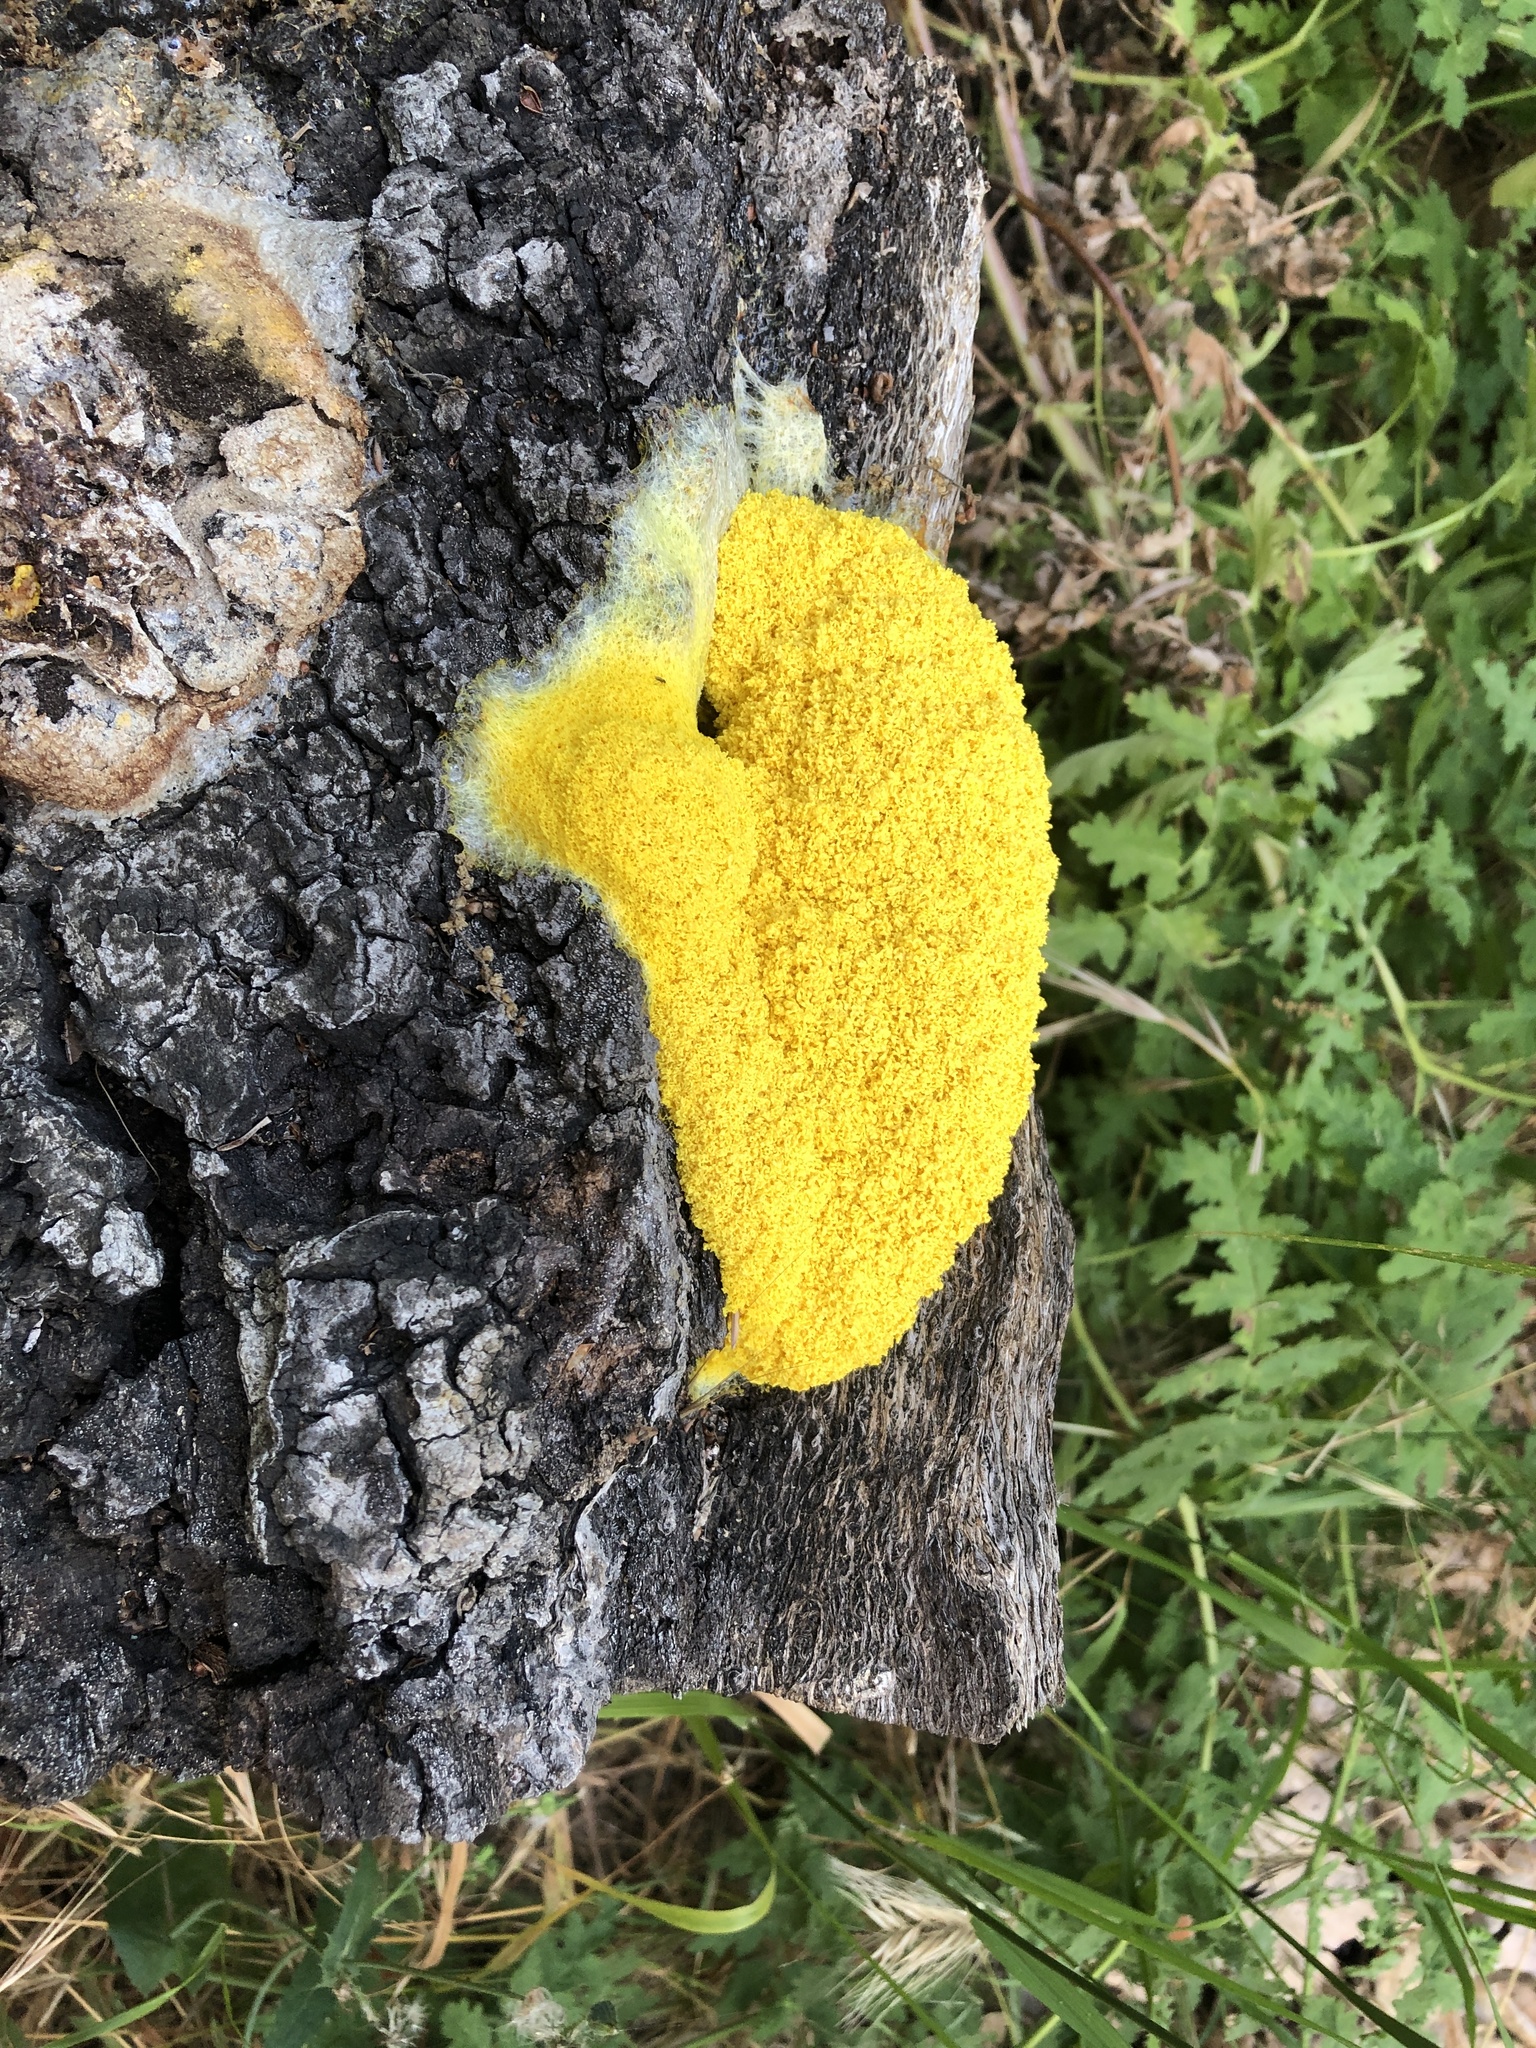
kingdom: Protozoa
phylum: Mycetozoa
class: Myxomycetes
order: Physarales
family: Physaraceae
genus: Fuligo
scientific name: Fuligo septica
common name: Dog vomit slime mold
